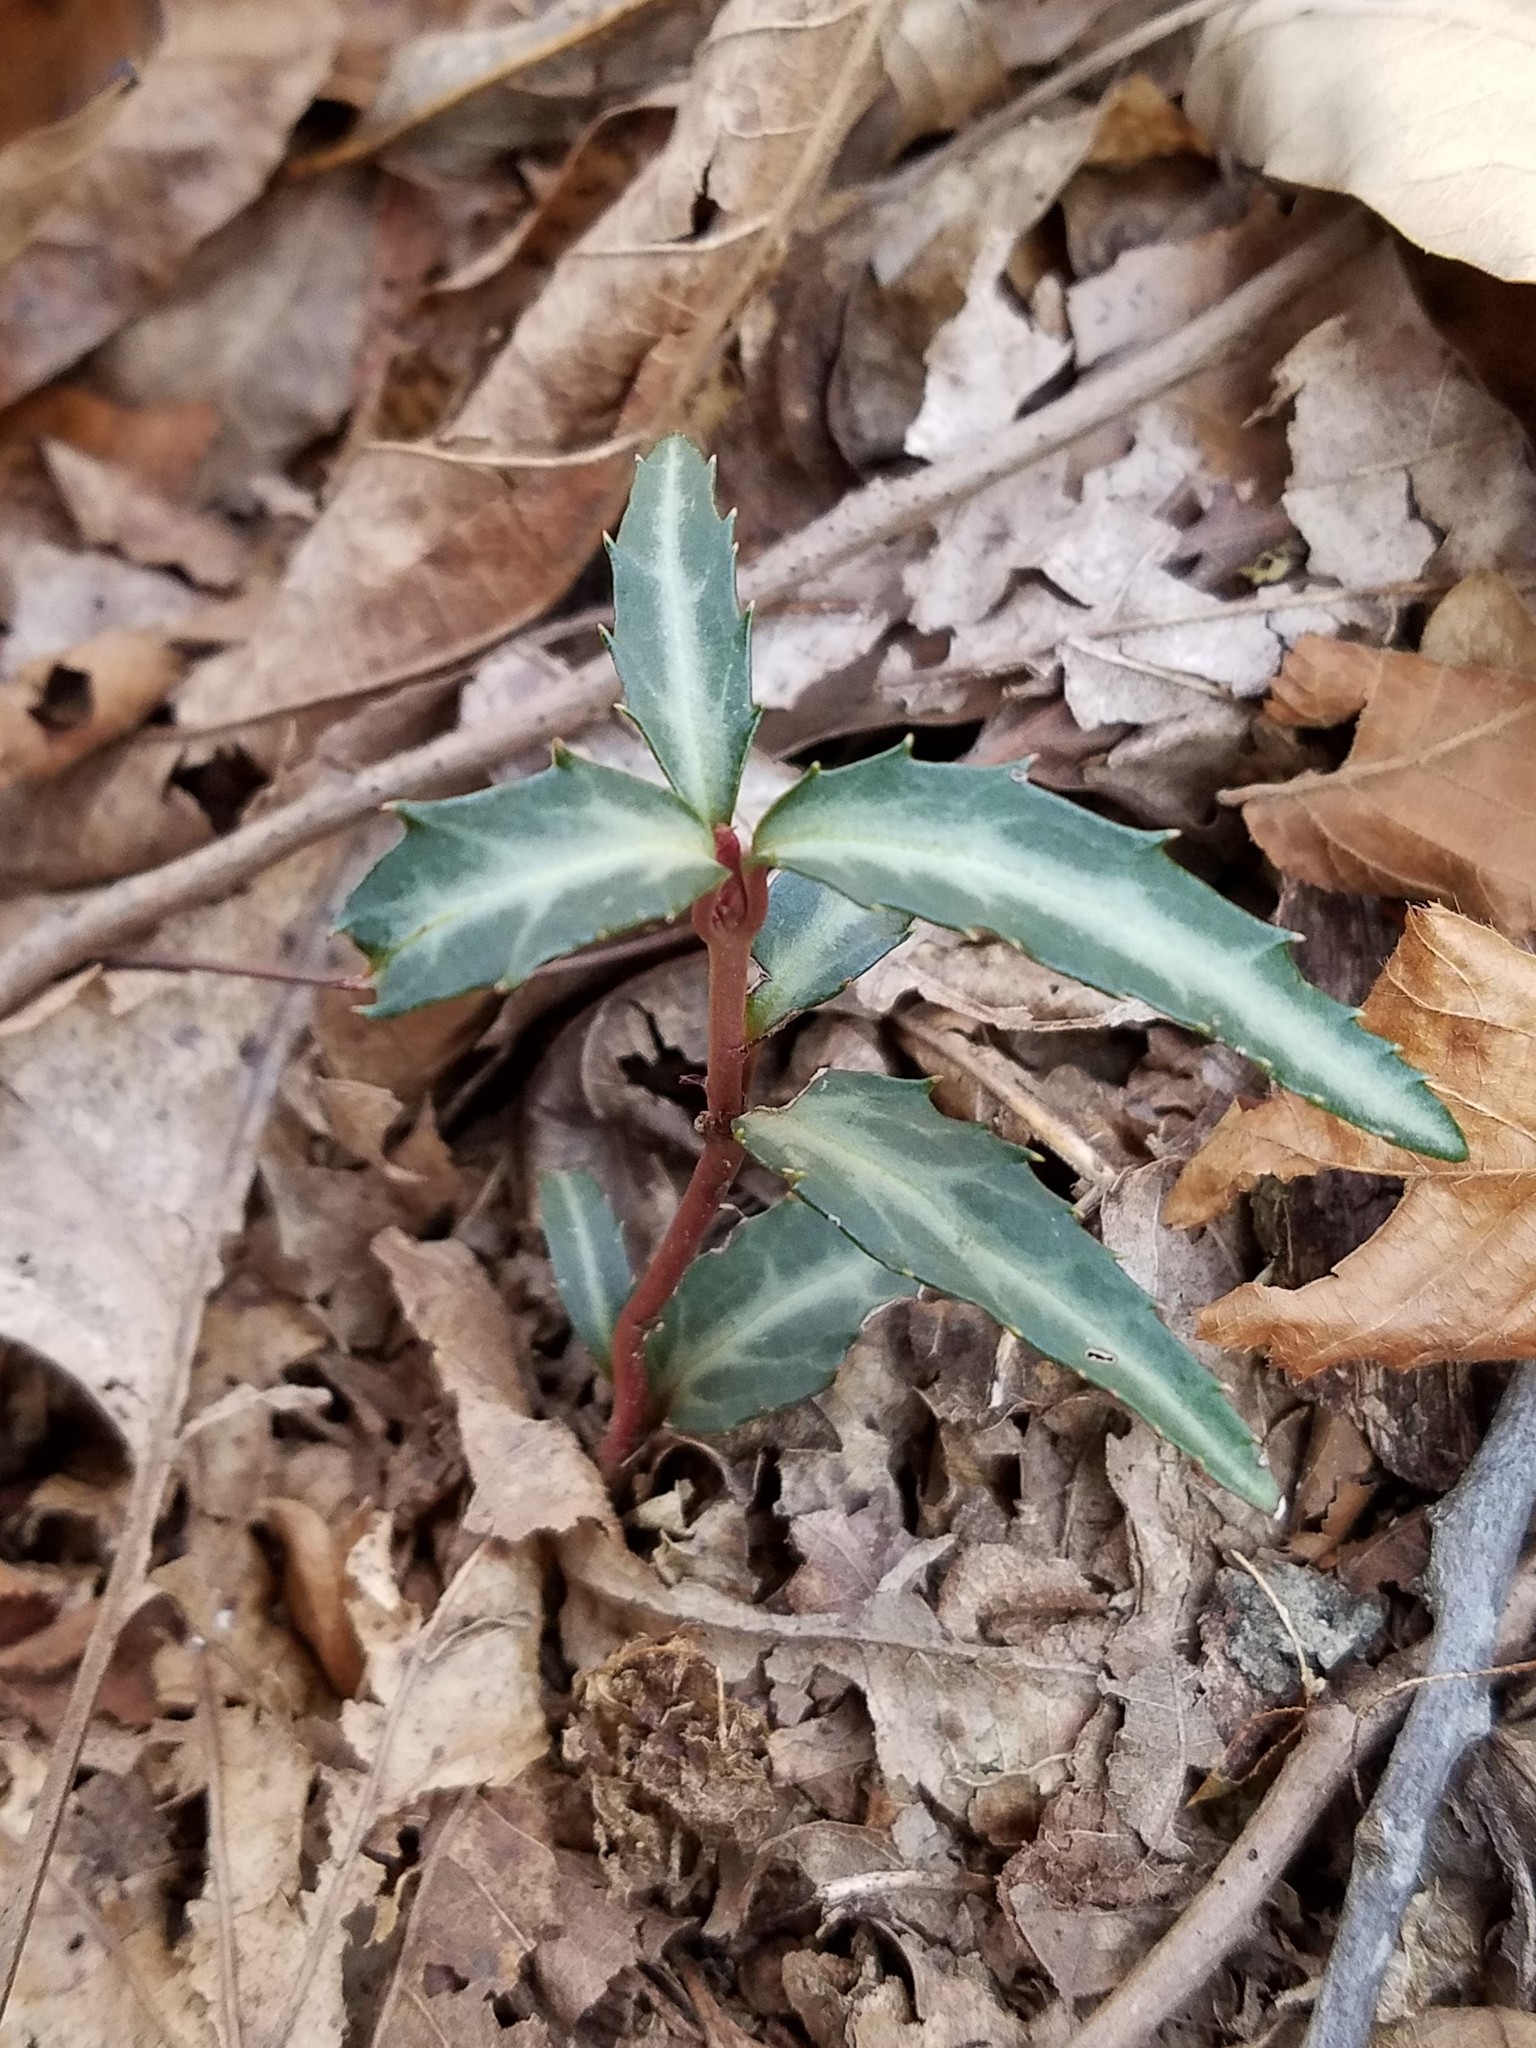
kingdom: Plantae
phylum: Tracheophyta
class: Magnoliopsida
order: Ericales
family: Ericaceae
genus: Chimaphila
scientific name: Chimaphila maculata
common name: Spotted pipsissewa
